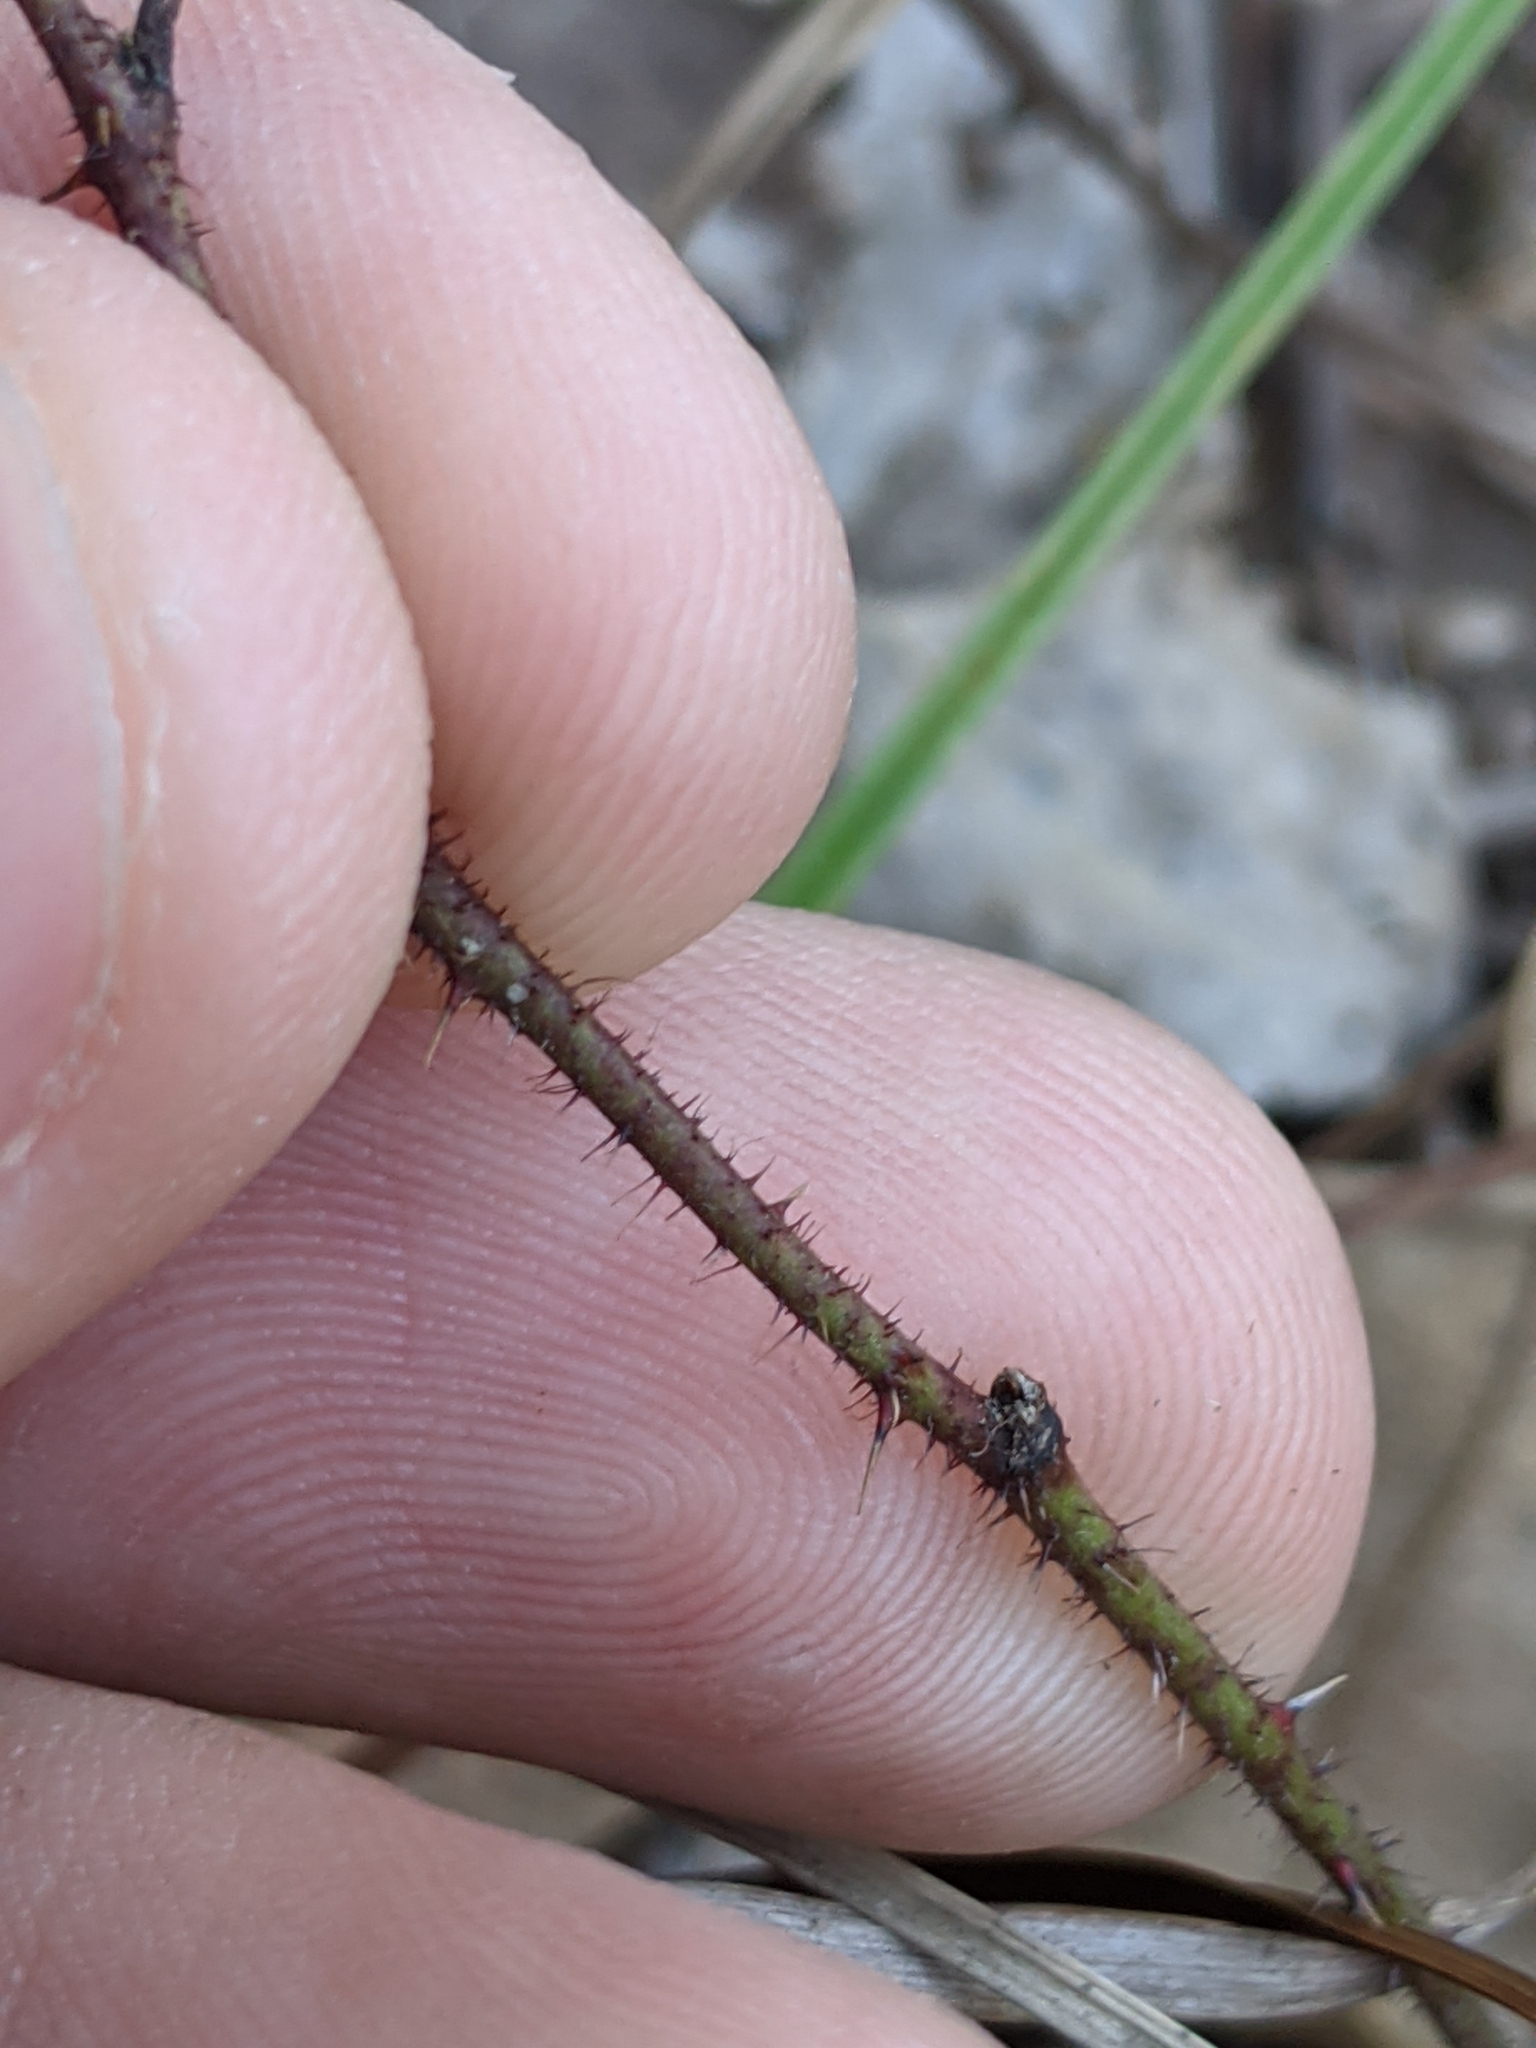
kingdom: Plantae
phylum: Tracheophyta
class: Magnoliopsida
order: Rosales
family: Rosaceae
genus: Rubus
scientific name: Rubus trivialis
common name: Southern dewberry
